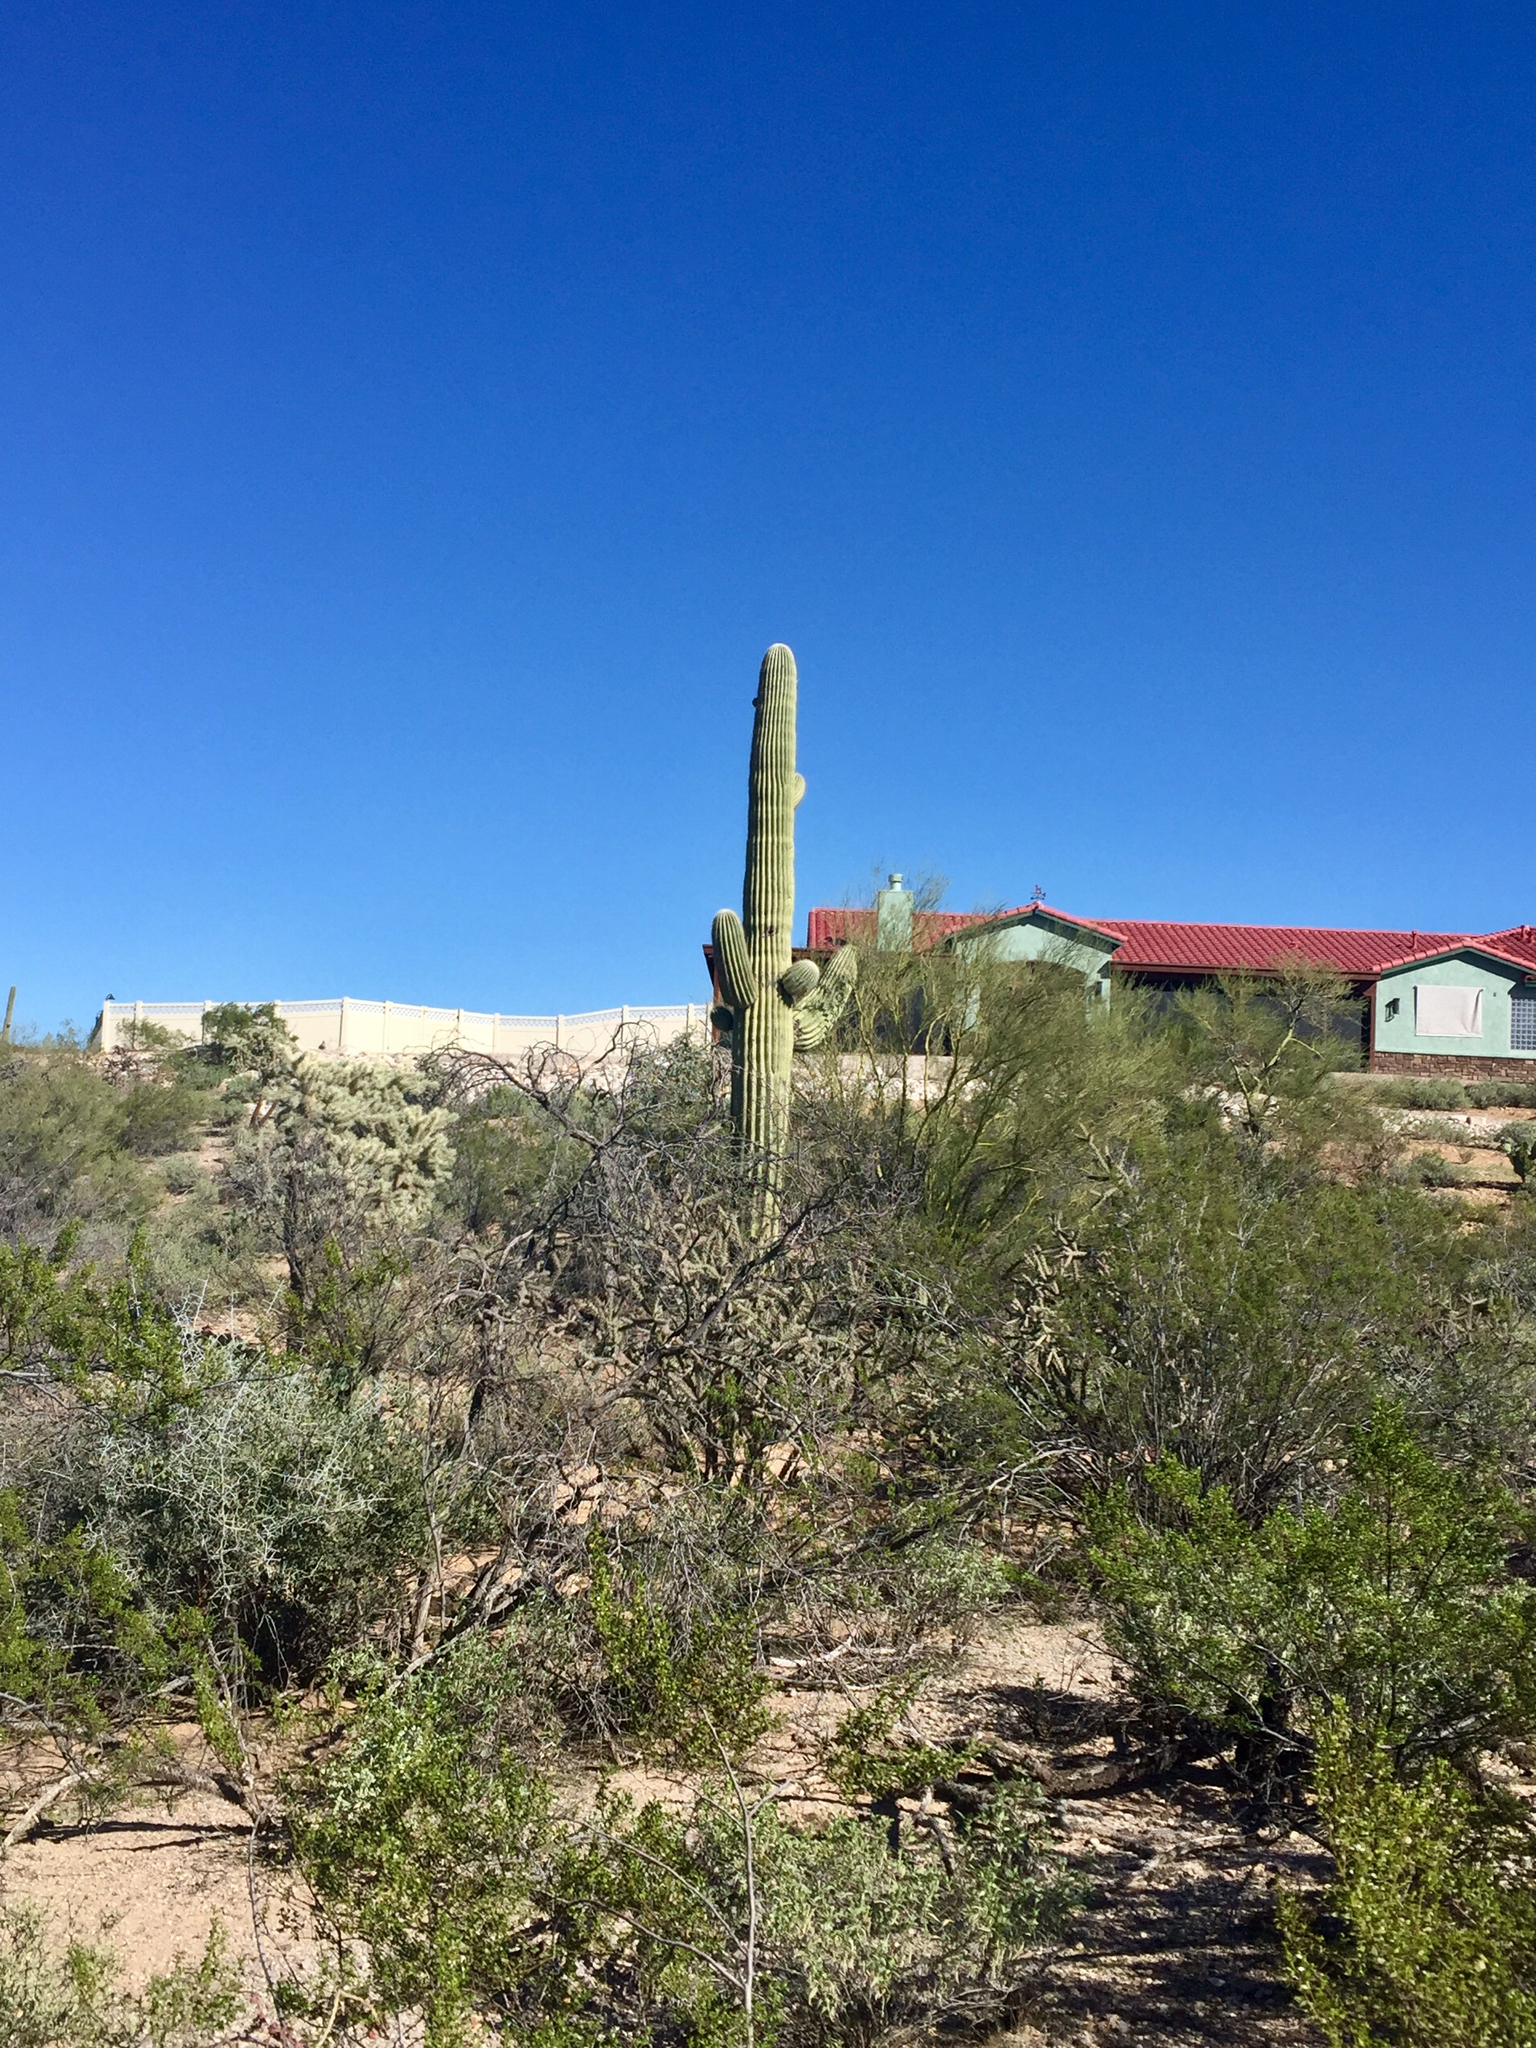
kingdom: Plantae
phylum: Tracheophyta
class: Magnoliopsida
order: Caryophyllales
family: Cactaceae
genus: Carnegiea
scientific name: Carnegiea gigantea
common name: Saguaro
